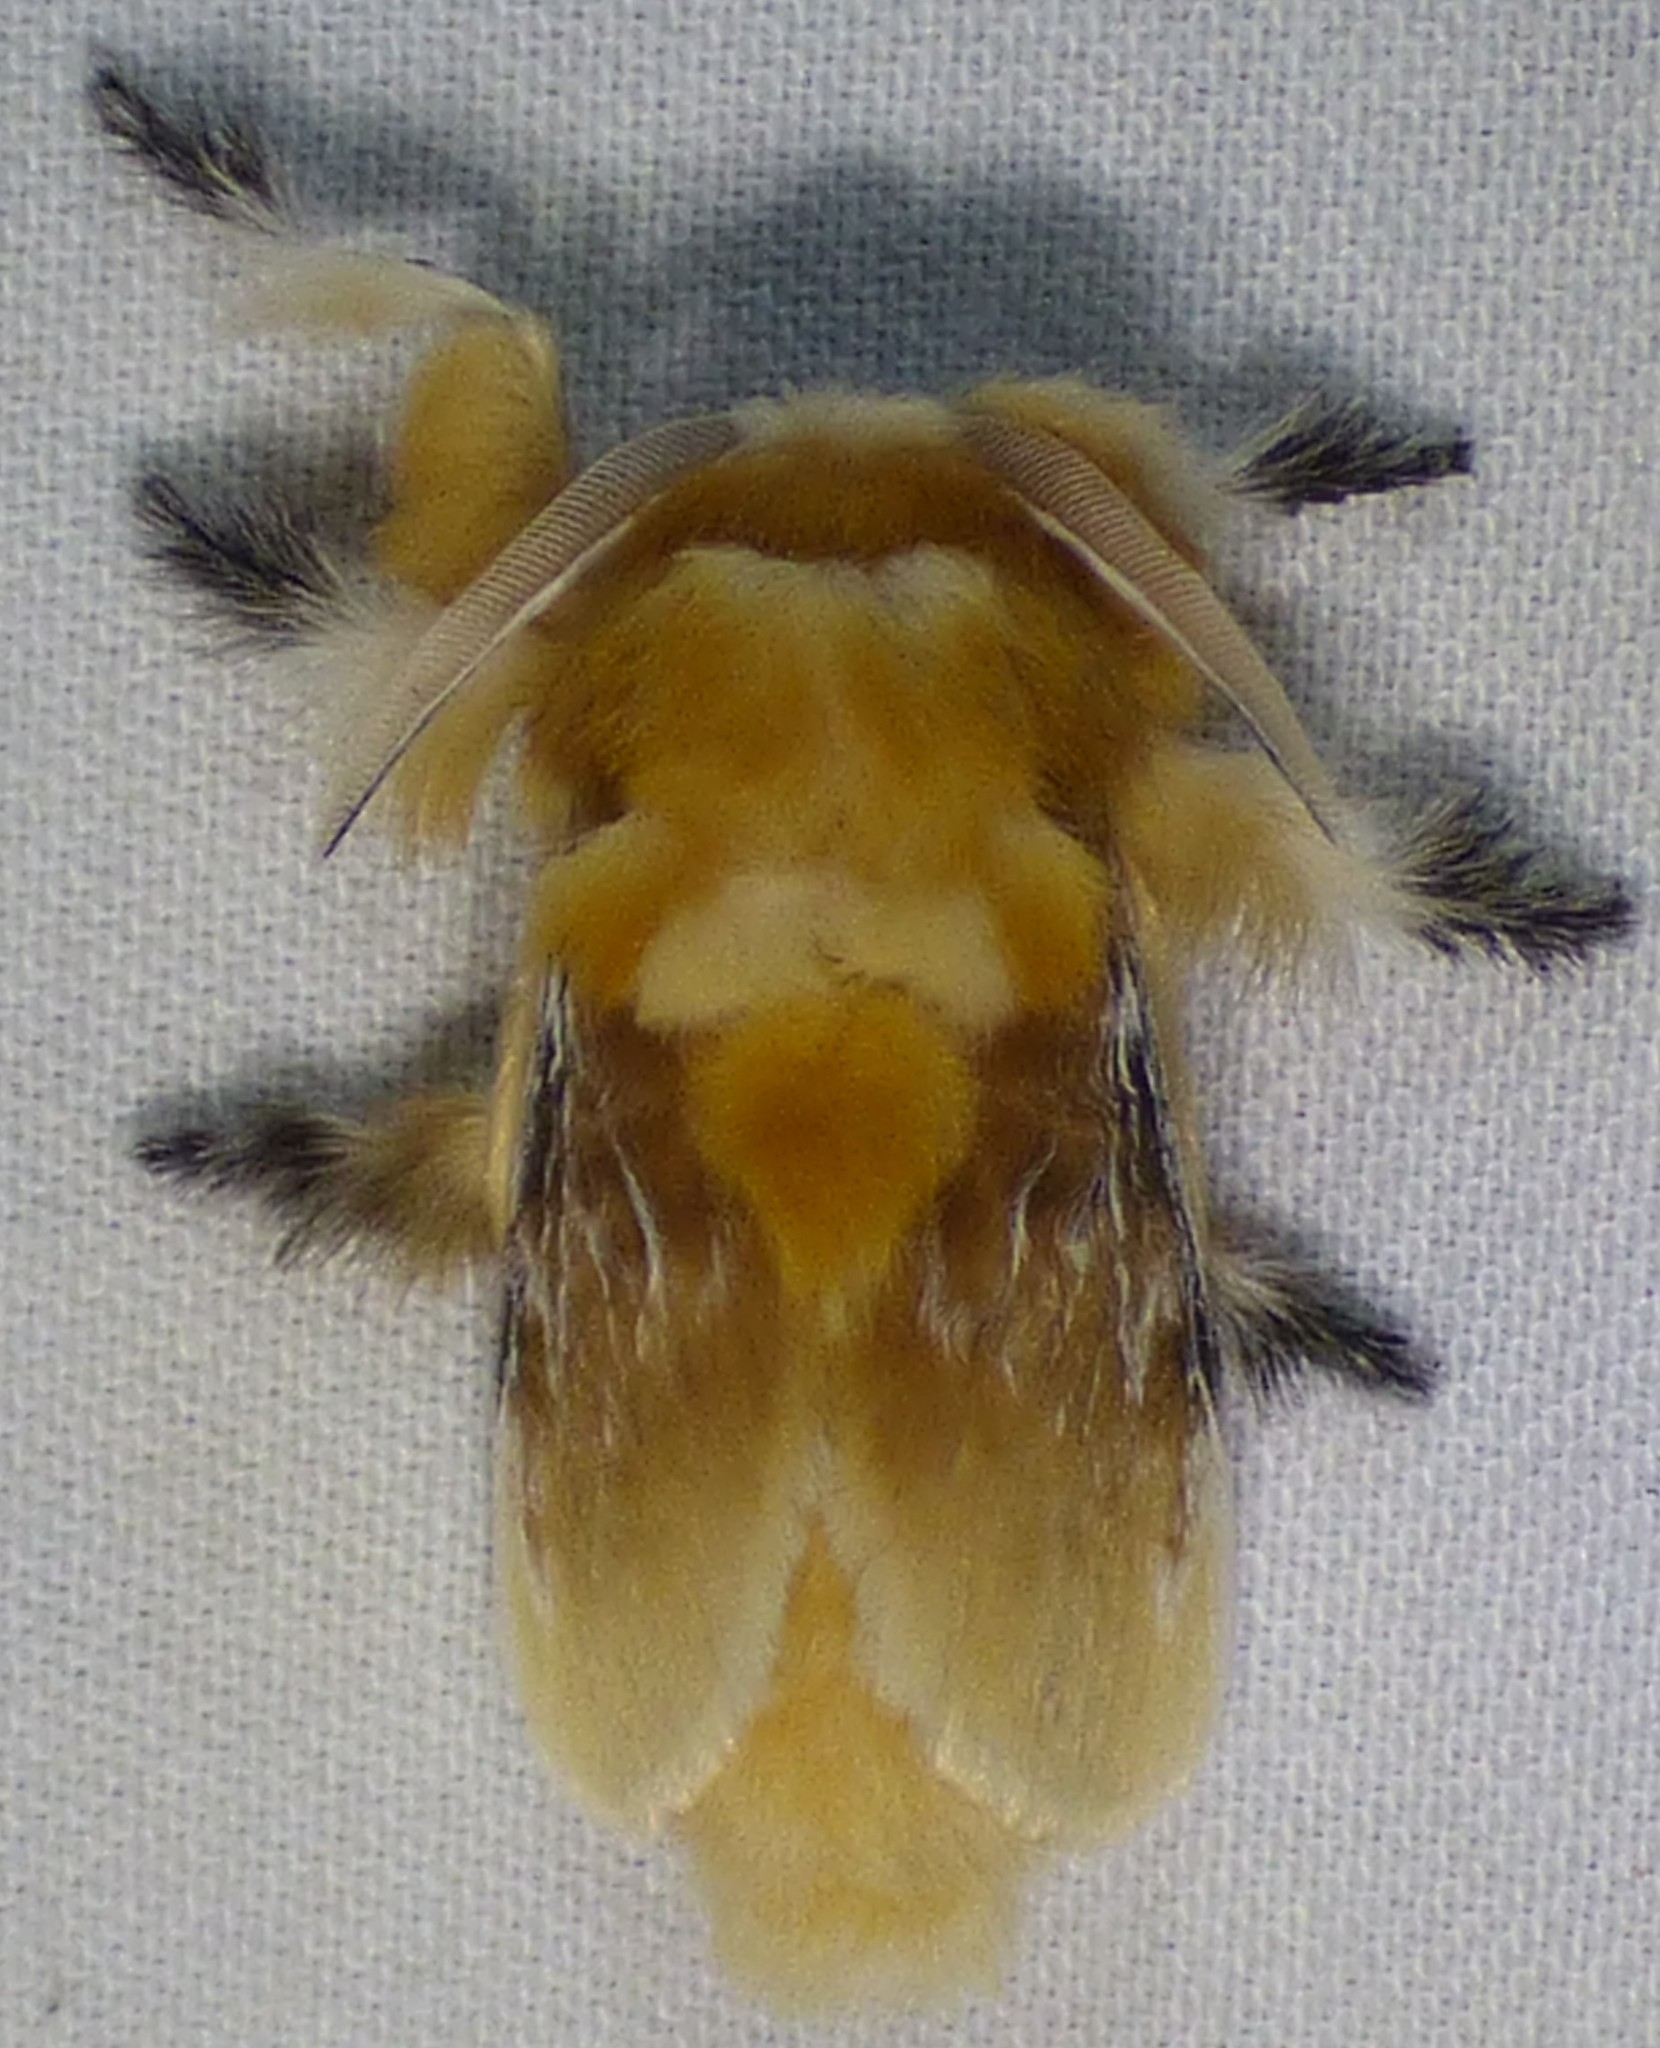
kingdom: Animalia
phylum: Arthropoda
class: Insecta
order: Lepidoptera
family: Megalopygidae
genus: Megalopyge
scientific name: Megalopyge opercularis
